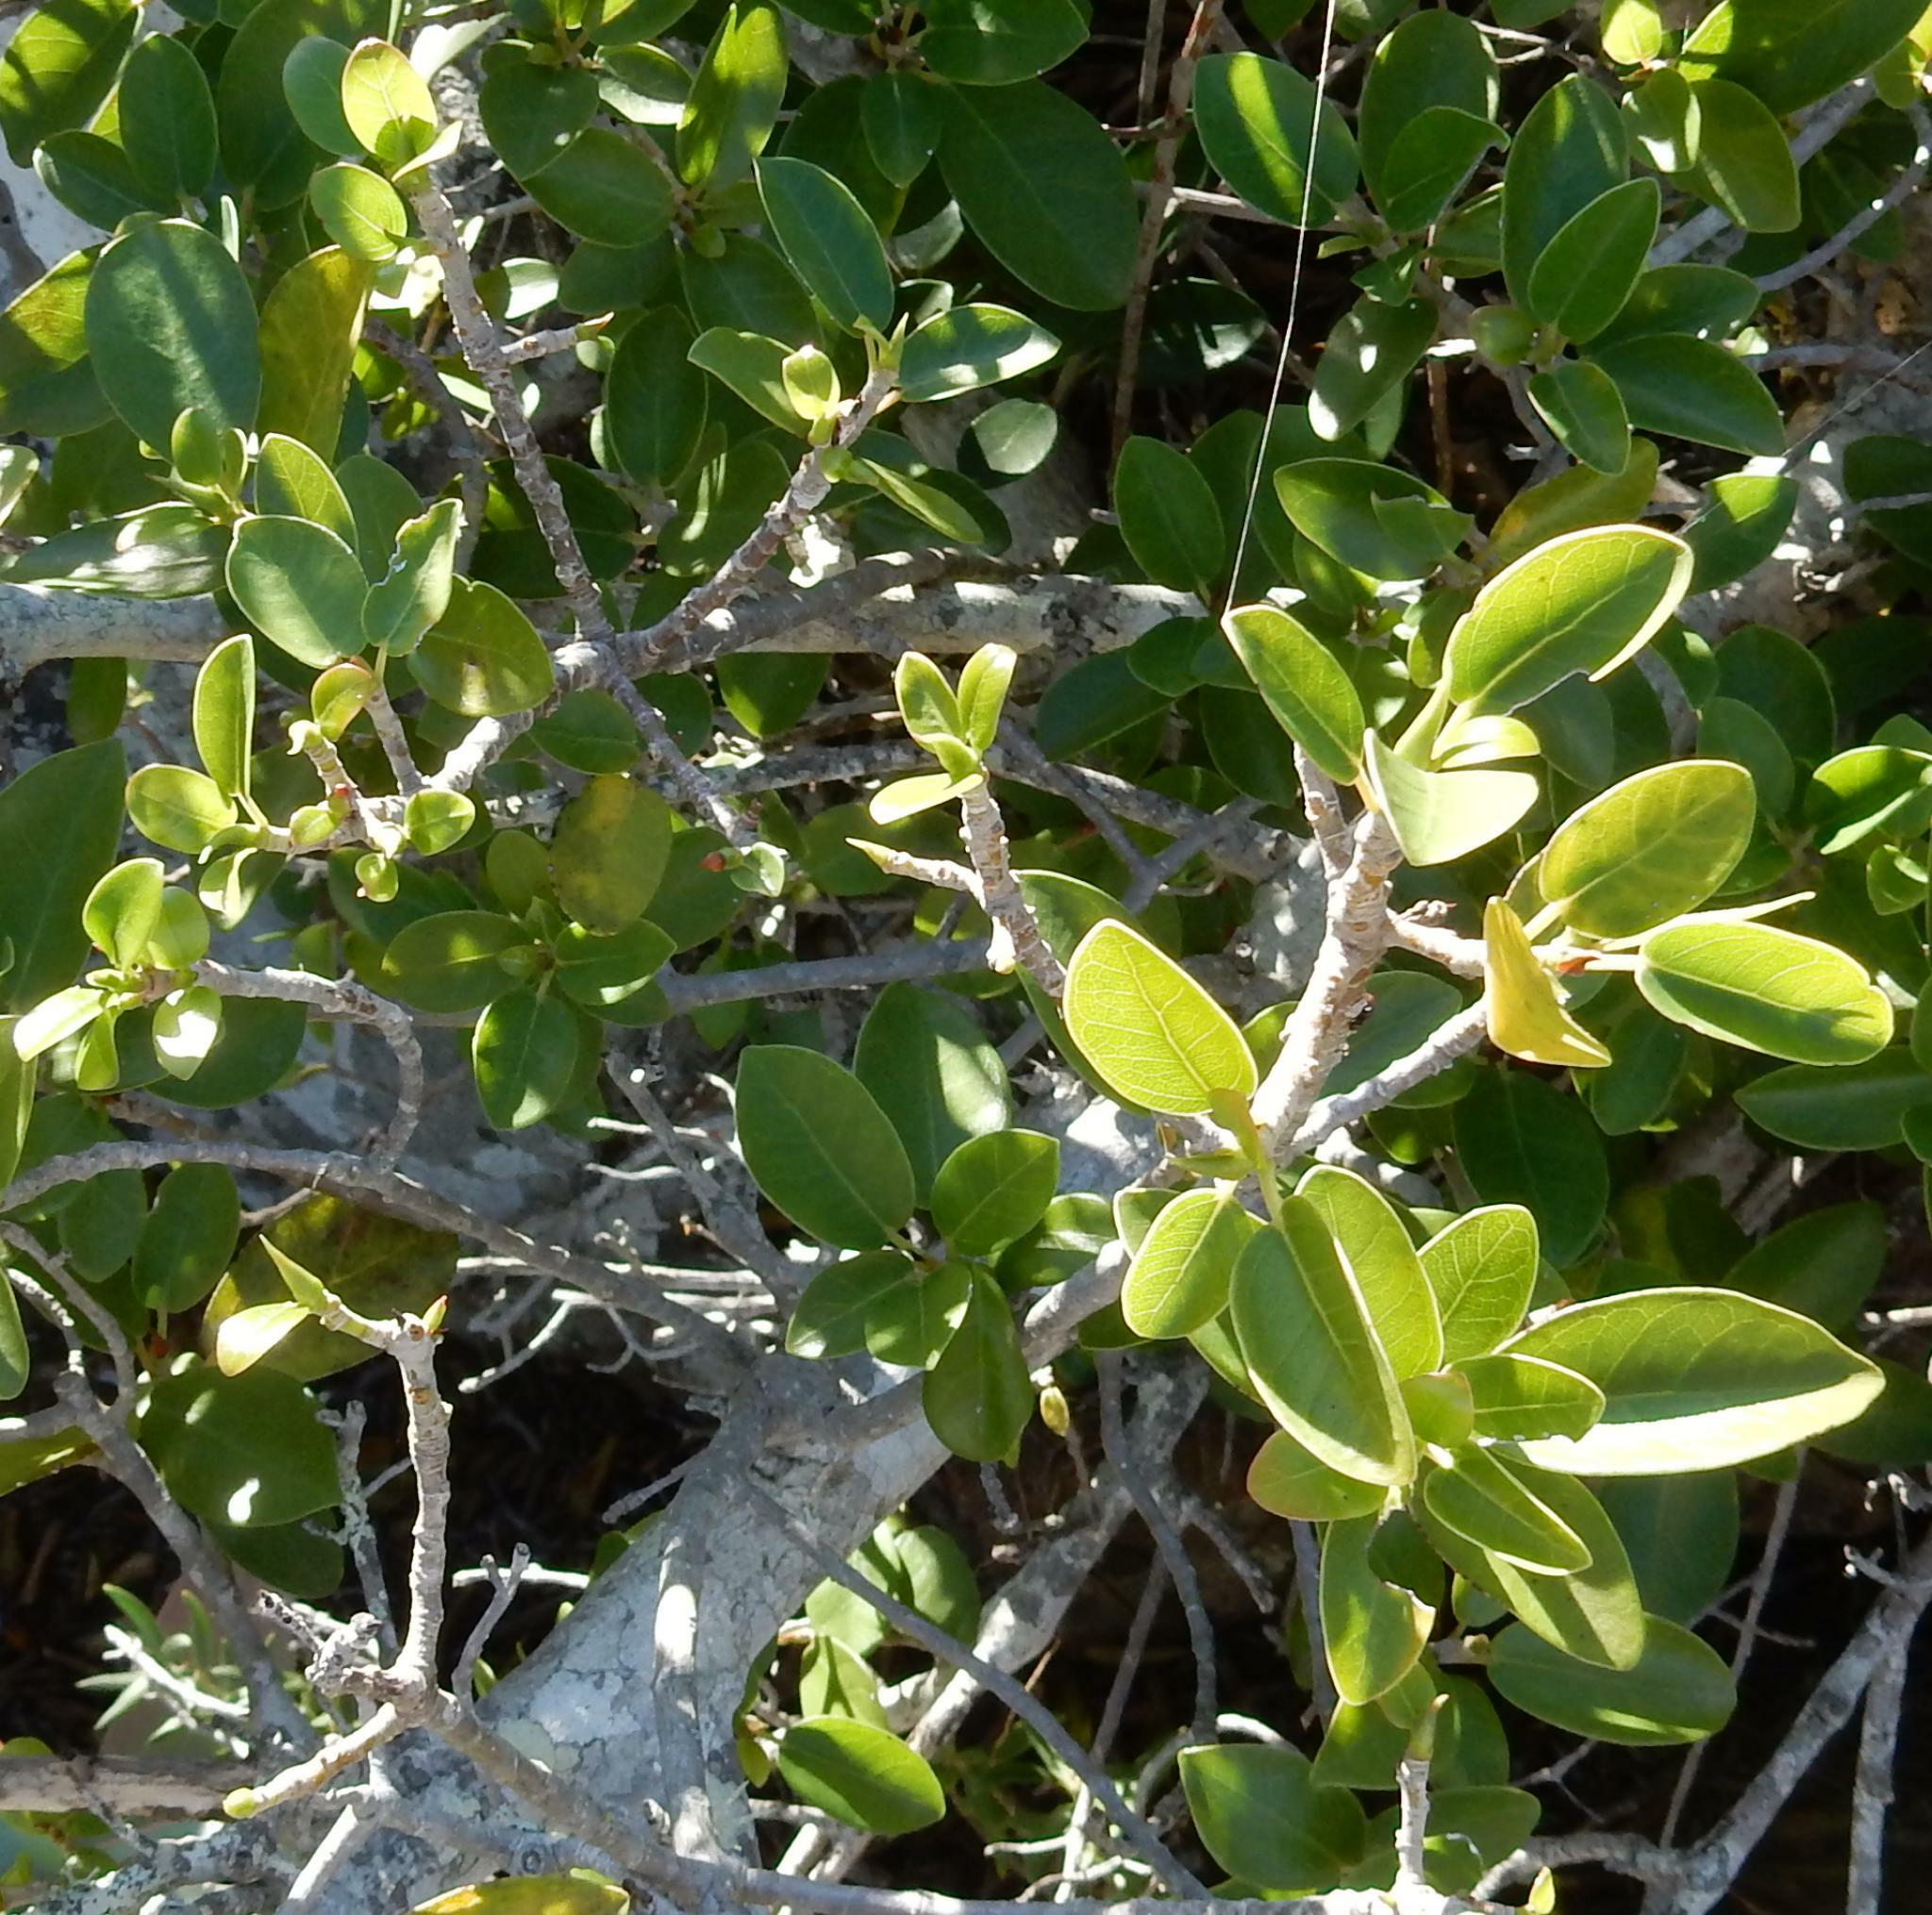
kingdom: Plantae
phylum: Tracheophyta
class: Magnoliopsida
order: Rosales
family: Moraceae
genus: Ficus
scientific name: Ficus burtt-davyi
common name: Scrambling fig
